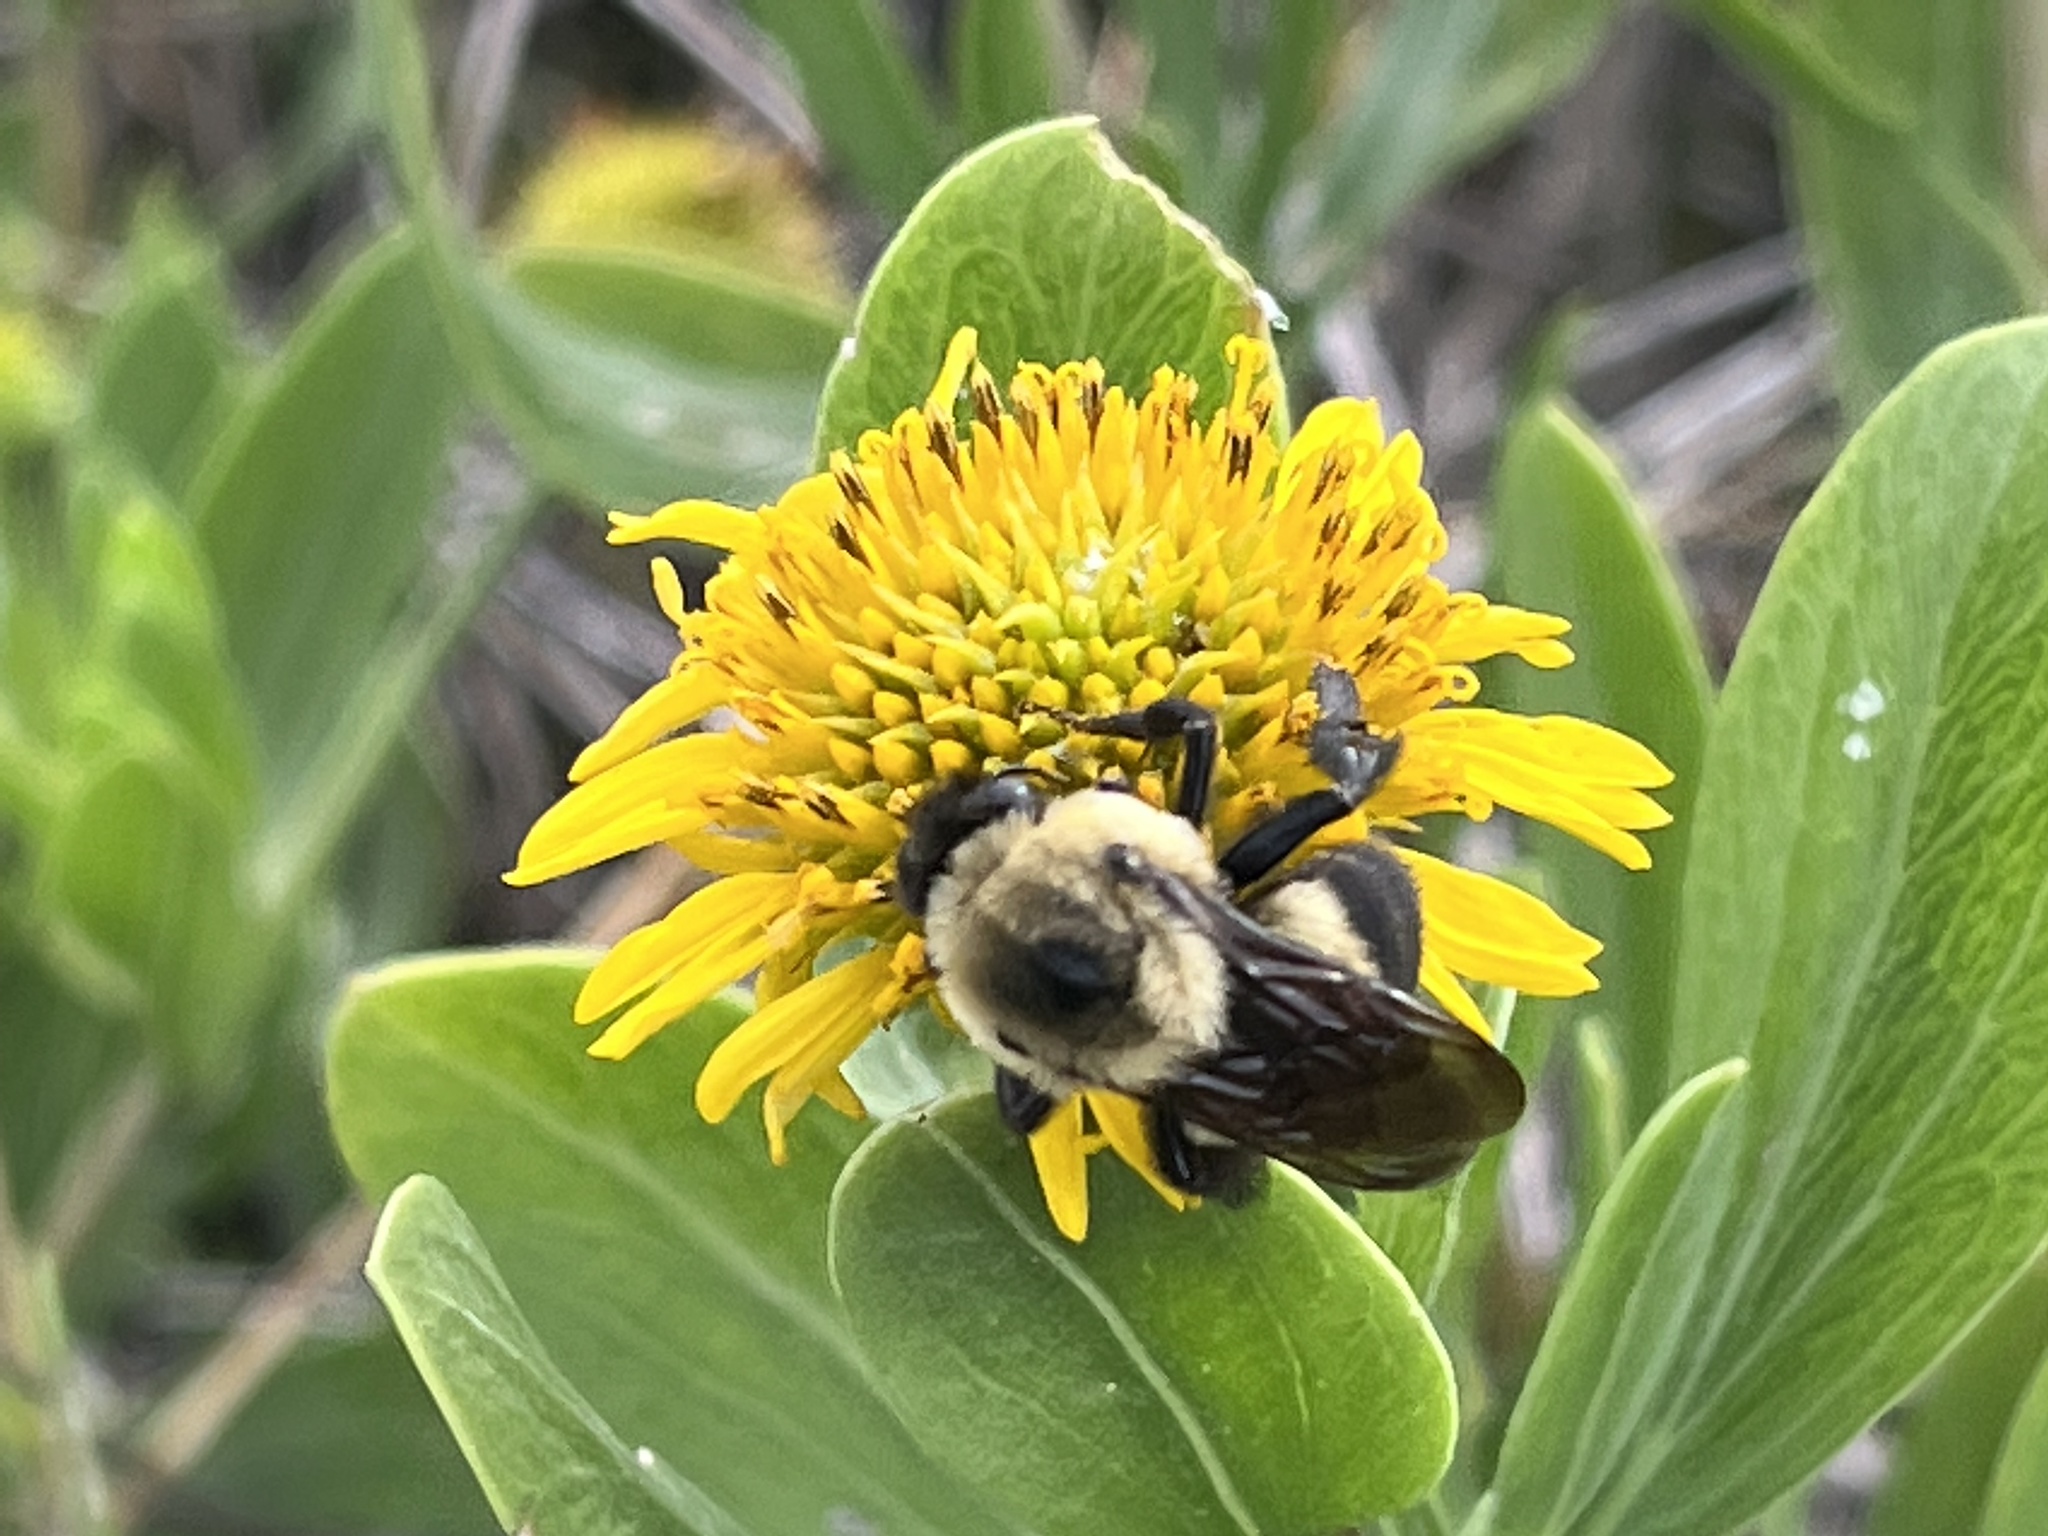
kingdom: Animalia
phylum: Arthropoda
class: Insecta
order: Hymenoptera
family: Apidae
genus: Bombus
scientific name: Bombus griseocollis
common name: Brown-belted bumble bee
